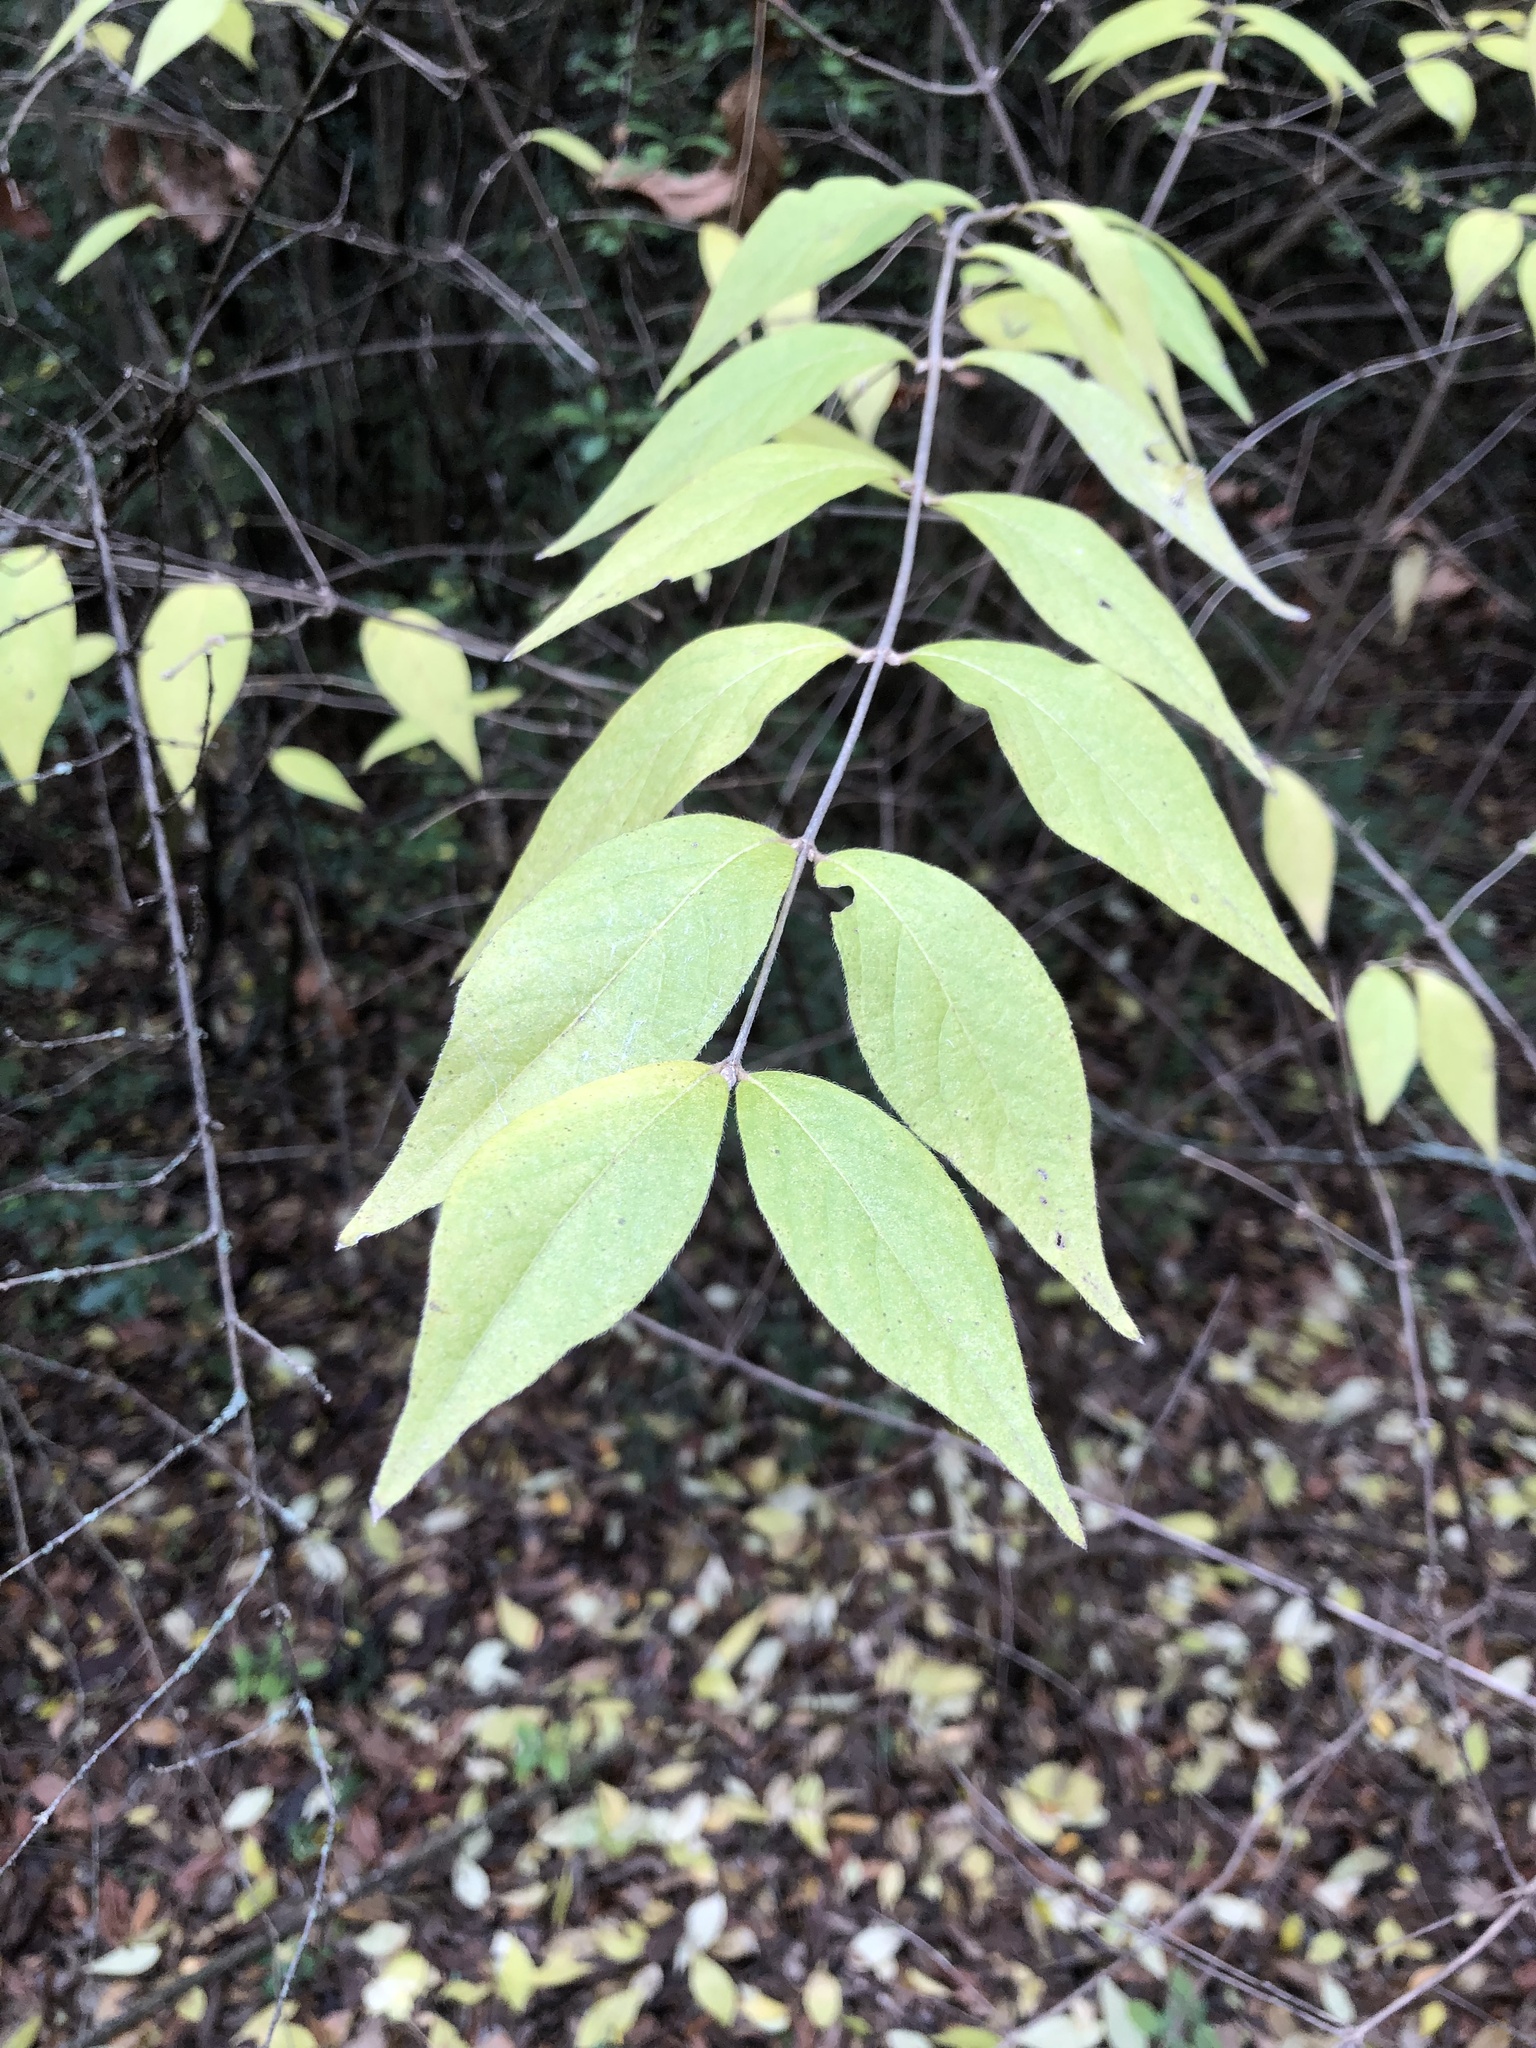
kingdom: Plantae
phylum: Tracheophyta
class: Magnoliopsida
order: Dipsacales
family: Caprifoliaceae
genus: Lonicera
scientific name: Lonicera maackii
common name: Amur honeysuckle
